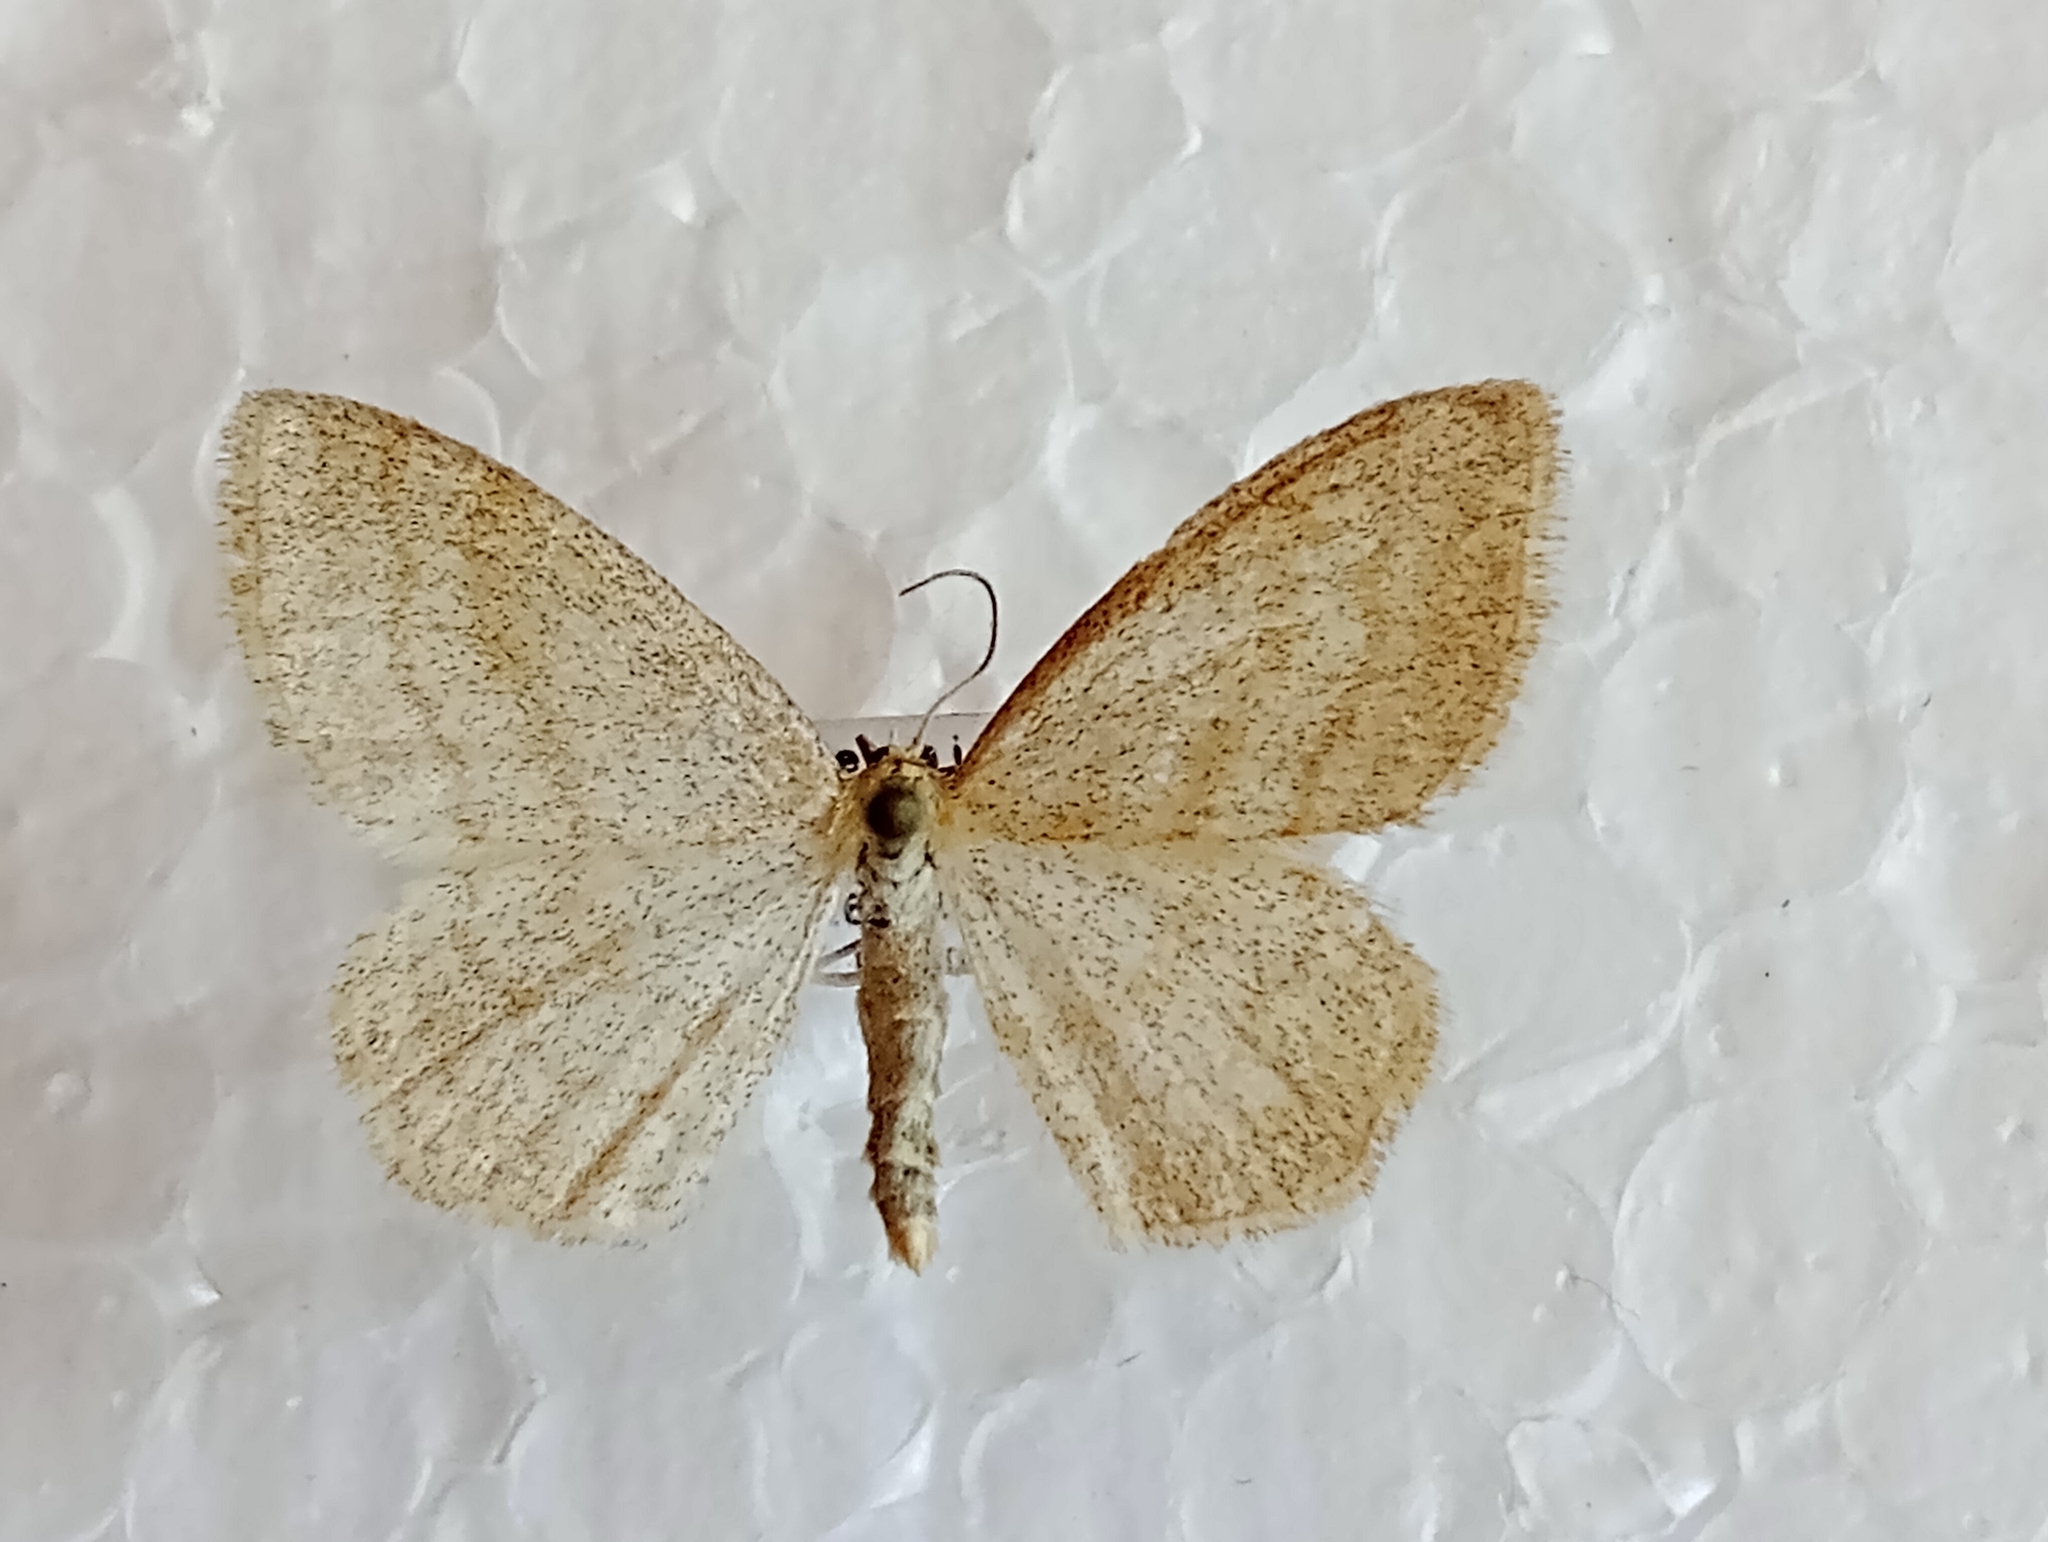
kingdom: Animalia
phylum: Arthropoda
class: Insecta
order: Lepidoptera
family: Geometridae
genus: Scopula
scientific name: Scopula ternata
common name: Smoky wave
